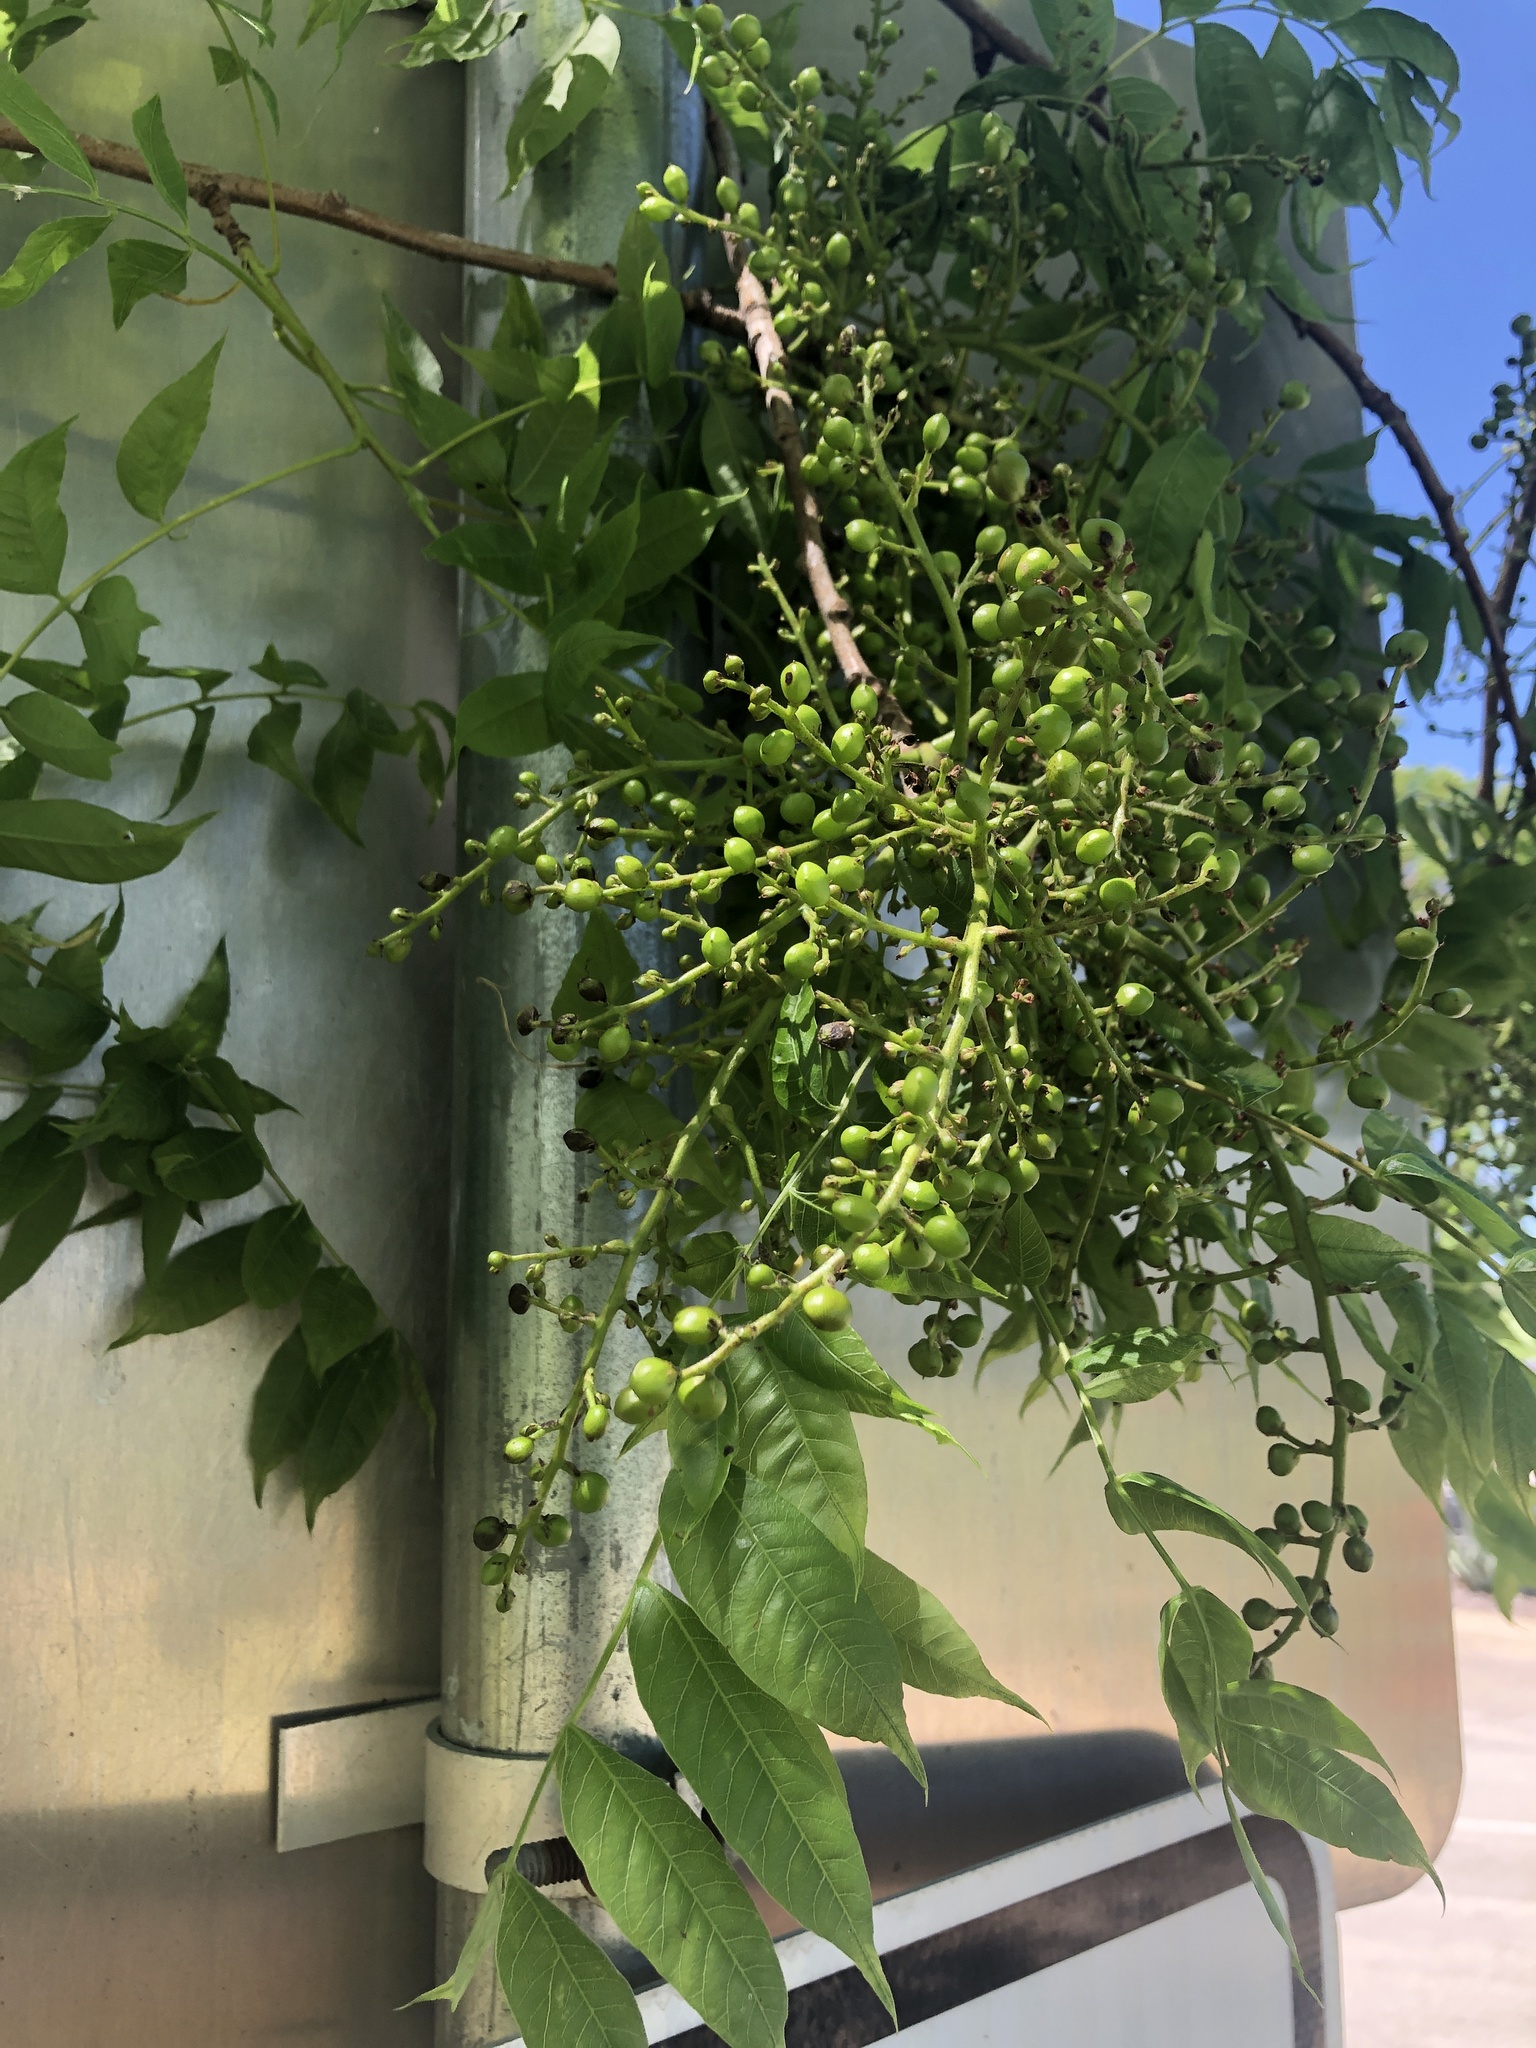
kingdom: Plantae
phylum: Tracheophyta
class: Magnoliopsida
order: Sapindales
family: Anacardiaceae
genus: Pistacia
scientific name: Pistacia chinensis
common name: Chinese pistache
